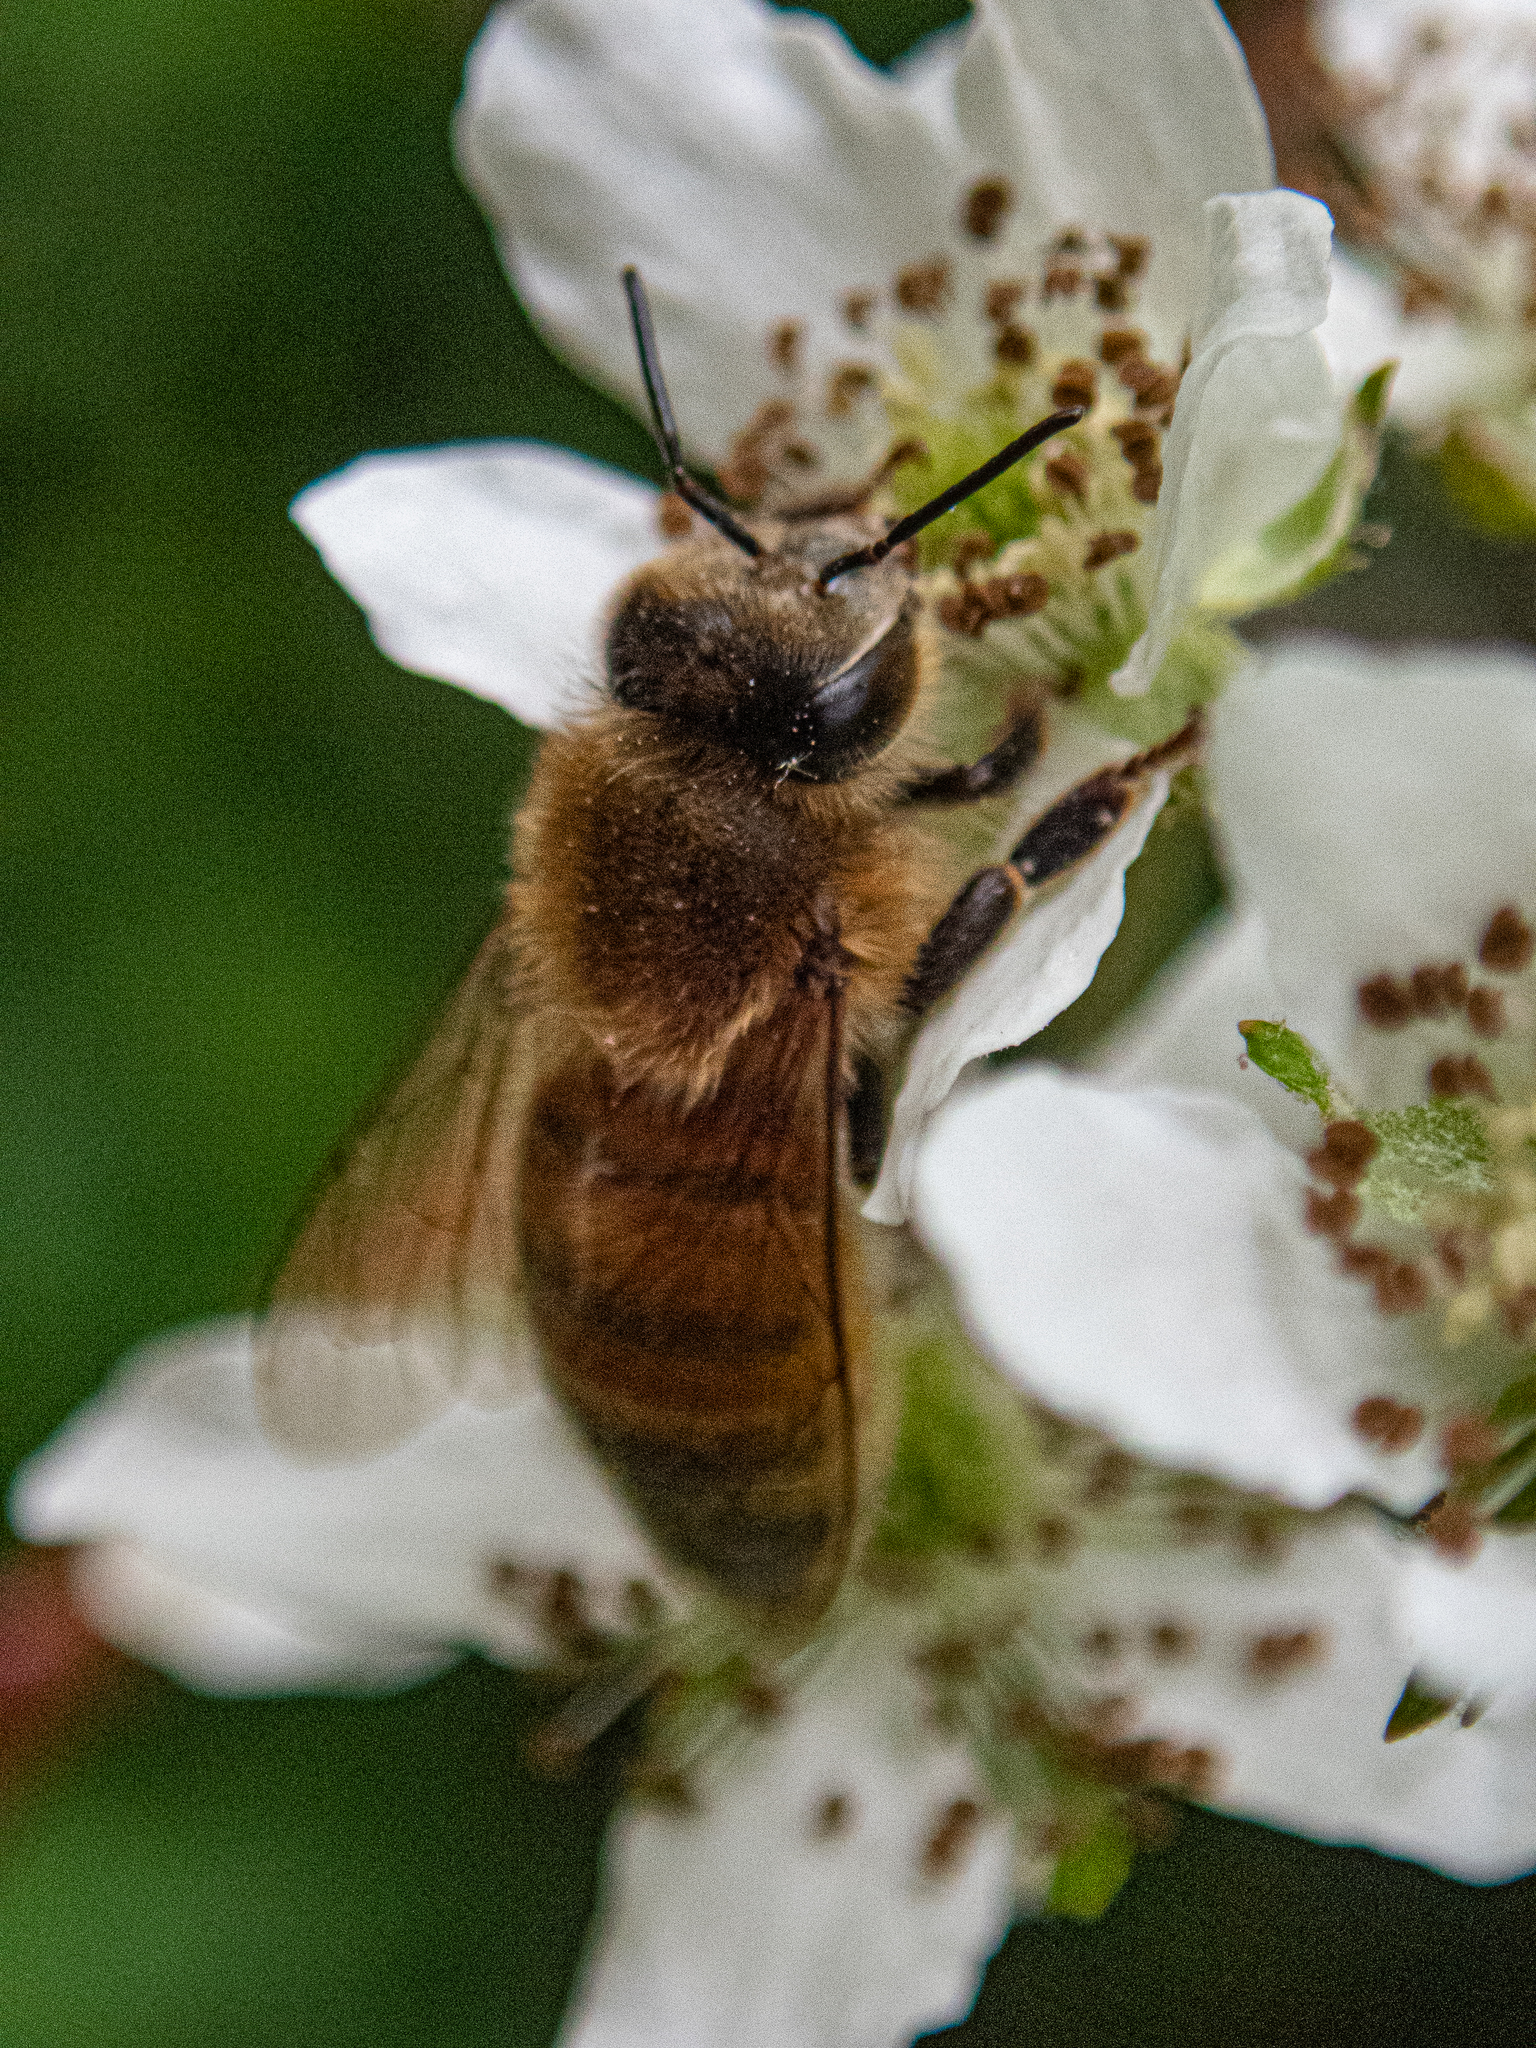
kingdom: Animalia
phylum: Arthropoda
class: Insecta
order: Hymenoptera
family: Apidae
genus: Apis
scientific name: Apis mellifera
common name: Honey bee
